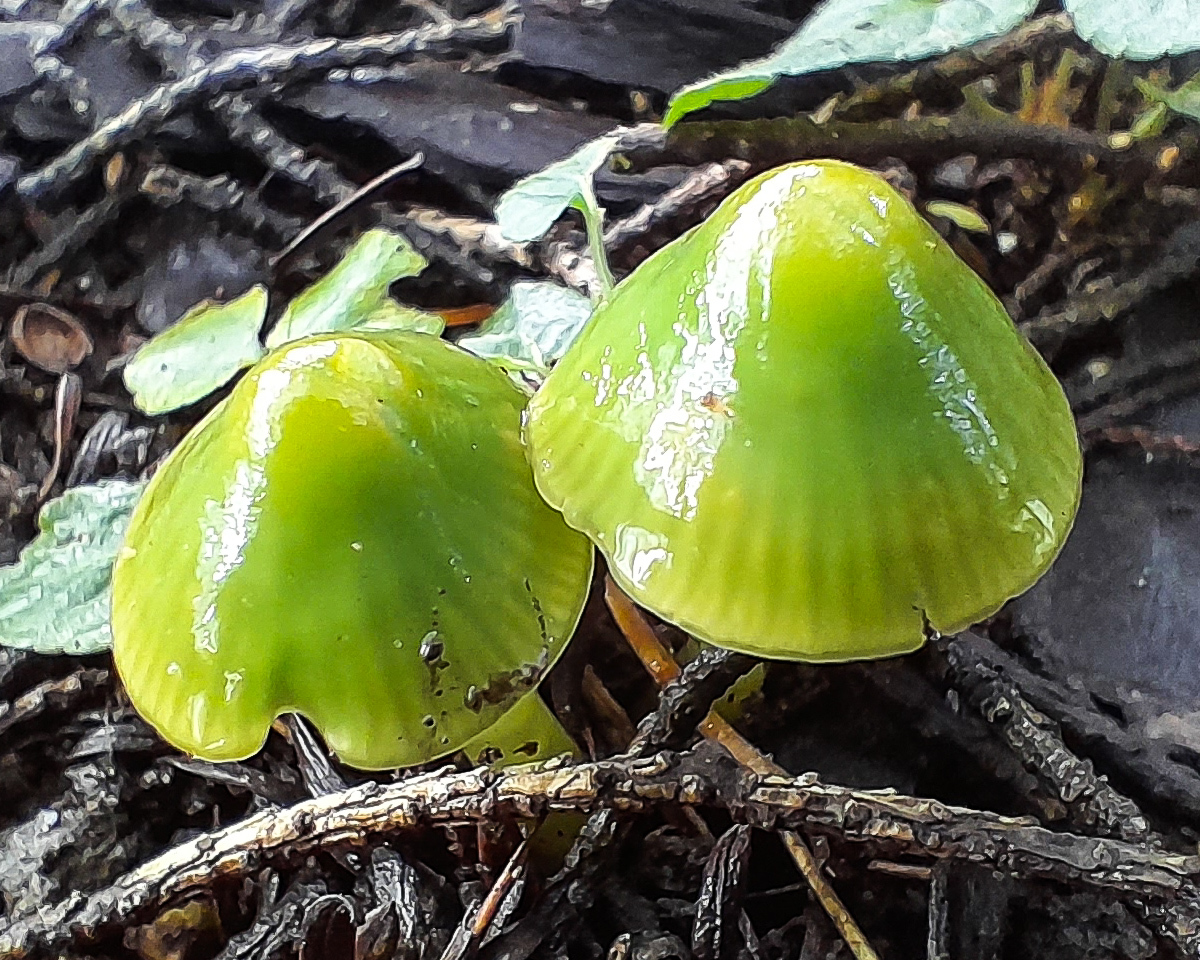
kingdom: Fungi
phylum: Basidiomycota
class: Agaricomycetes
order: Agaricales
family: Hygrophoraceae
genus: Gliophorus
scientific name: Gliophorus psittacinus
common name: Parrot wax-cap
